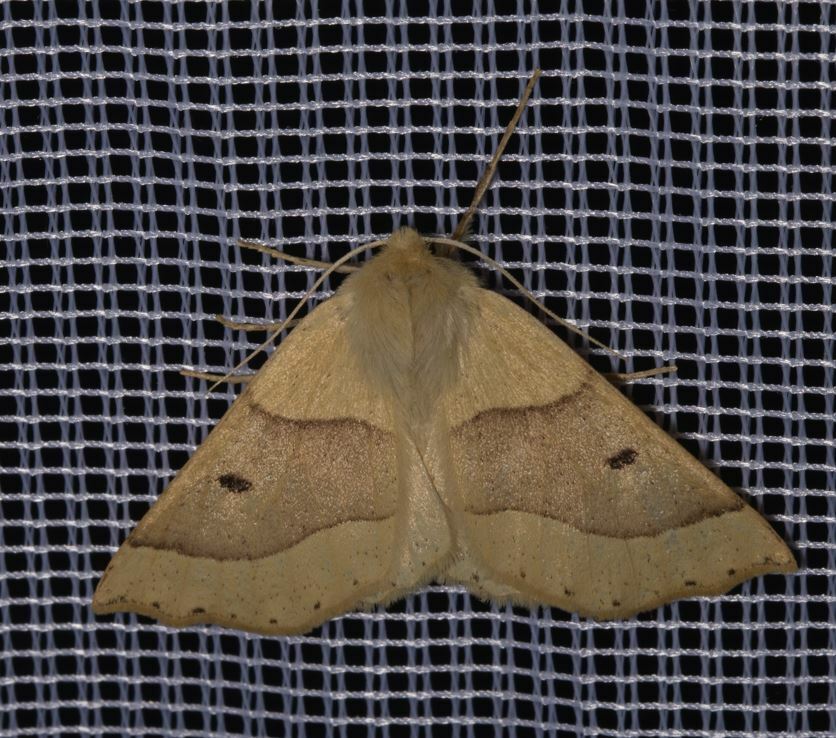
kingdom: Animalia
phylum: Arthropoda
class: Insecta
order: Lepidoptera
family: Geometridae
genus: Crocallis
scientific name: Crocallis elinguaria
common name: Scalloped oak
